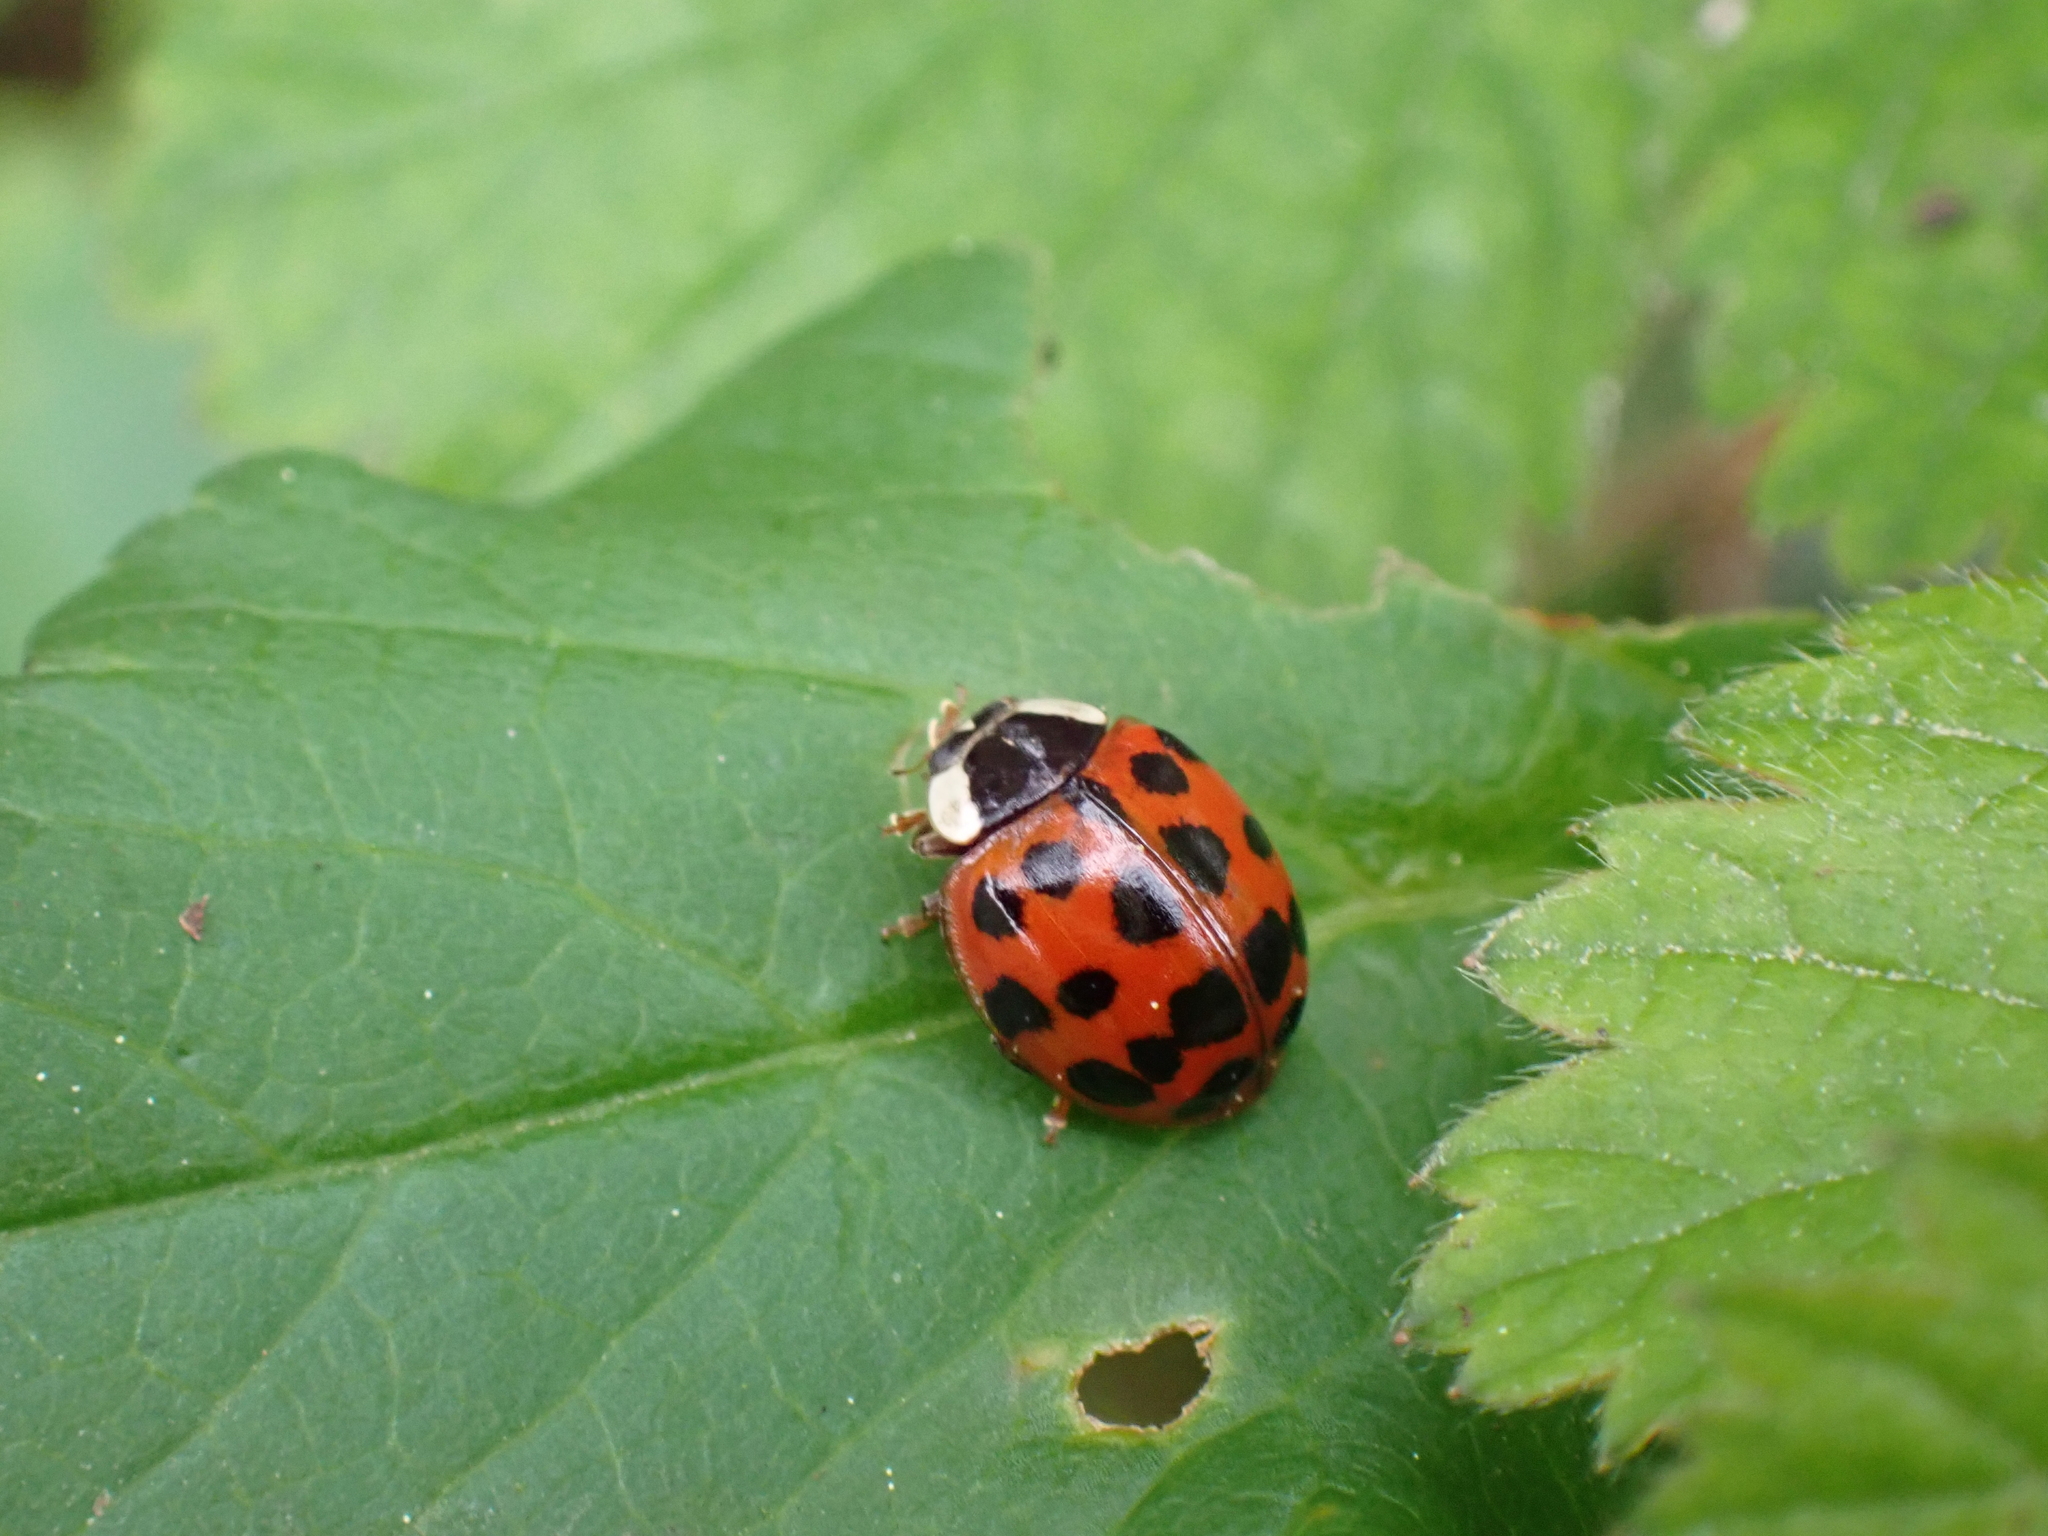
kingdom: Animalia
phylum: Arthropoda
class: Insecta
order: Coleoptera
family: Coccinellidae
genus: Harmonia
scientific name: Harmonia axyridis
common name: Harlequin ladybird
